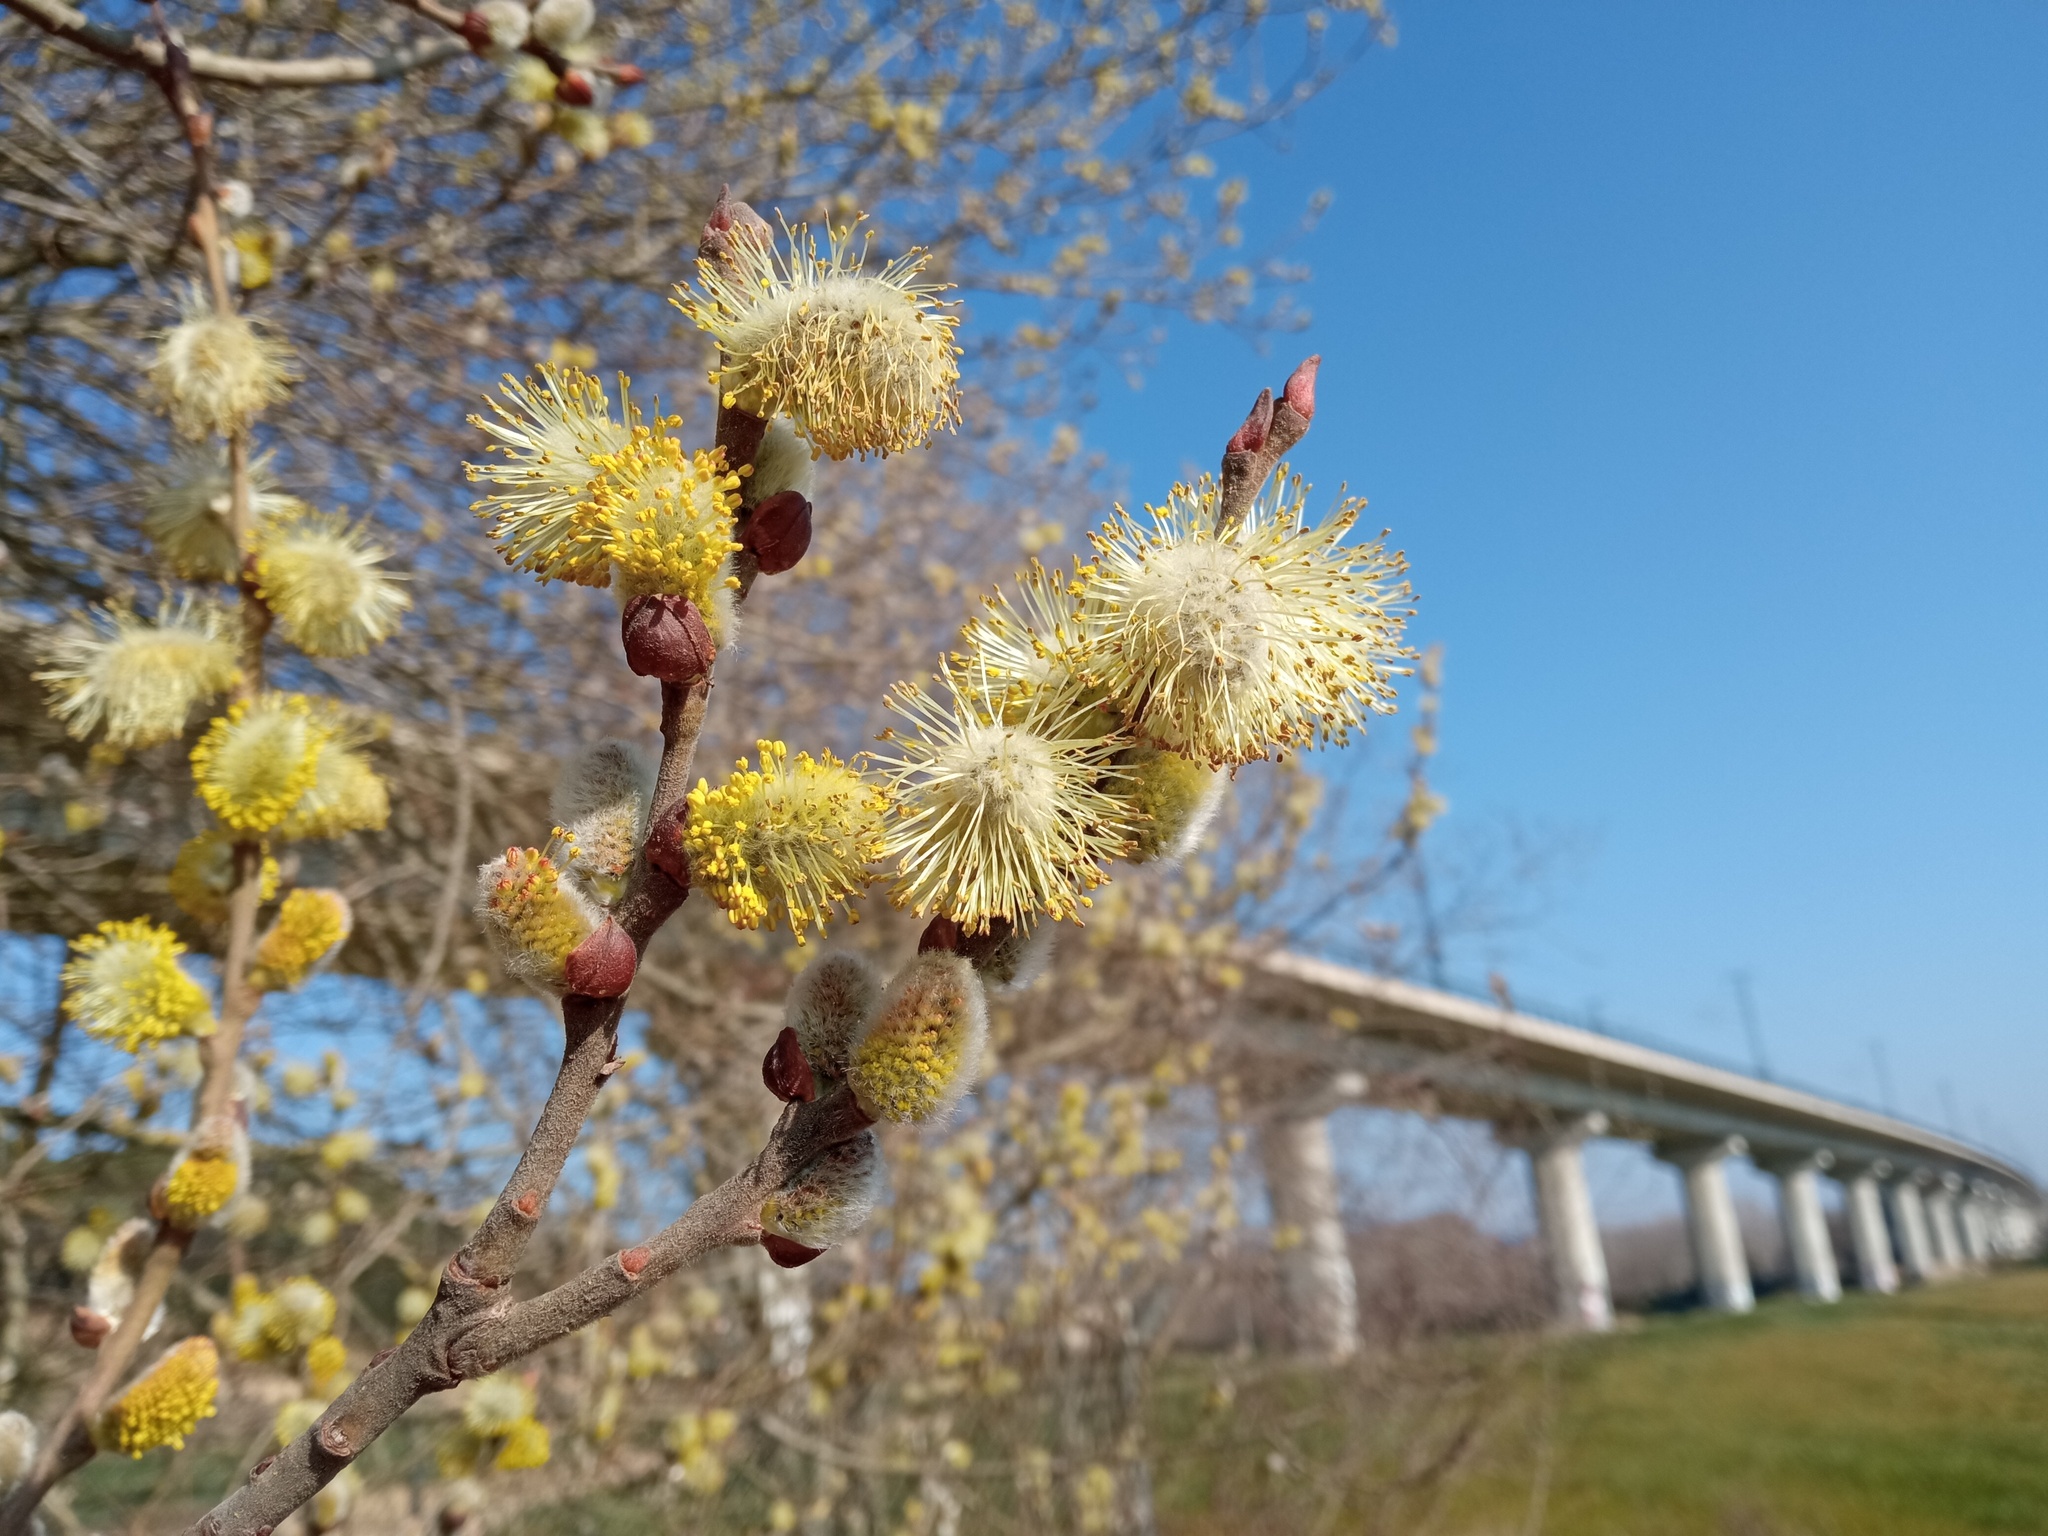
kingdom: Plantae
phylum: Tracheophyta
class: Magnoliopsida
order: Malpighiales
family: Salicaceae
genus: Salix
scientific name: Salix atrocinerea
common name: Rusty willow
